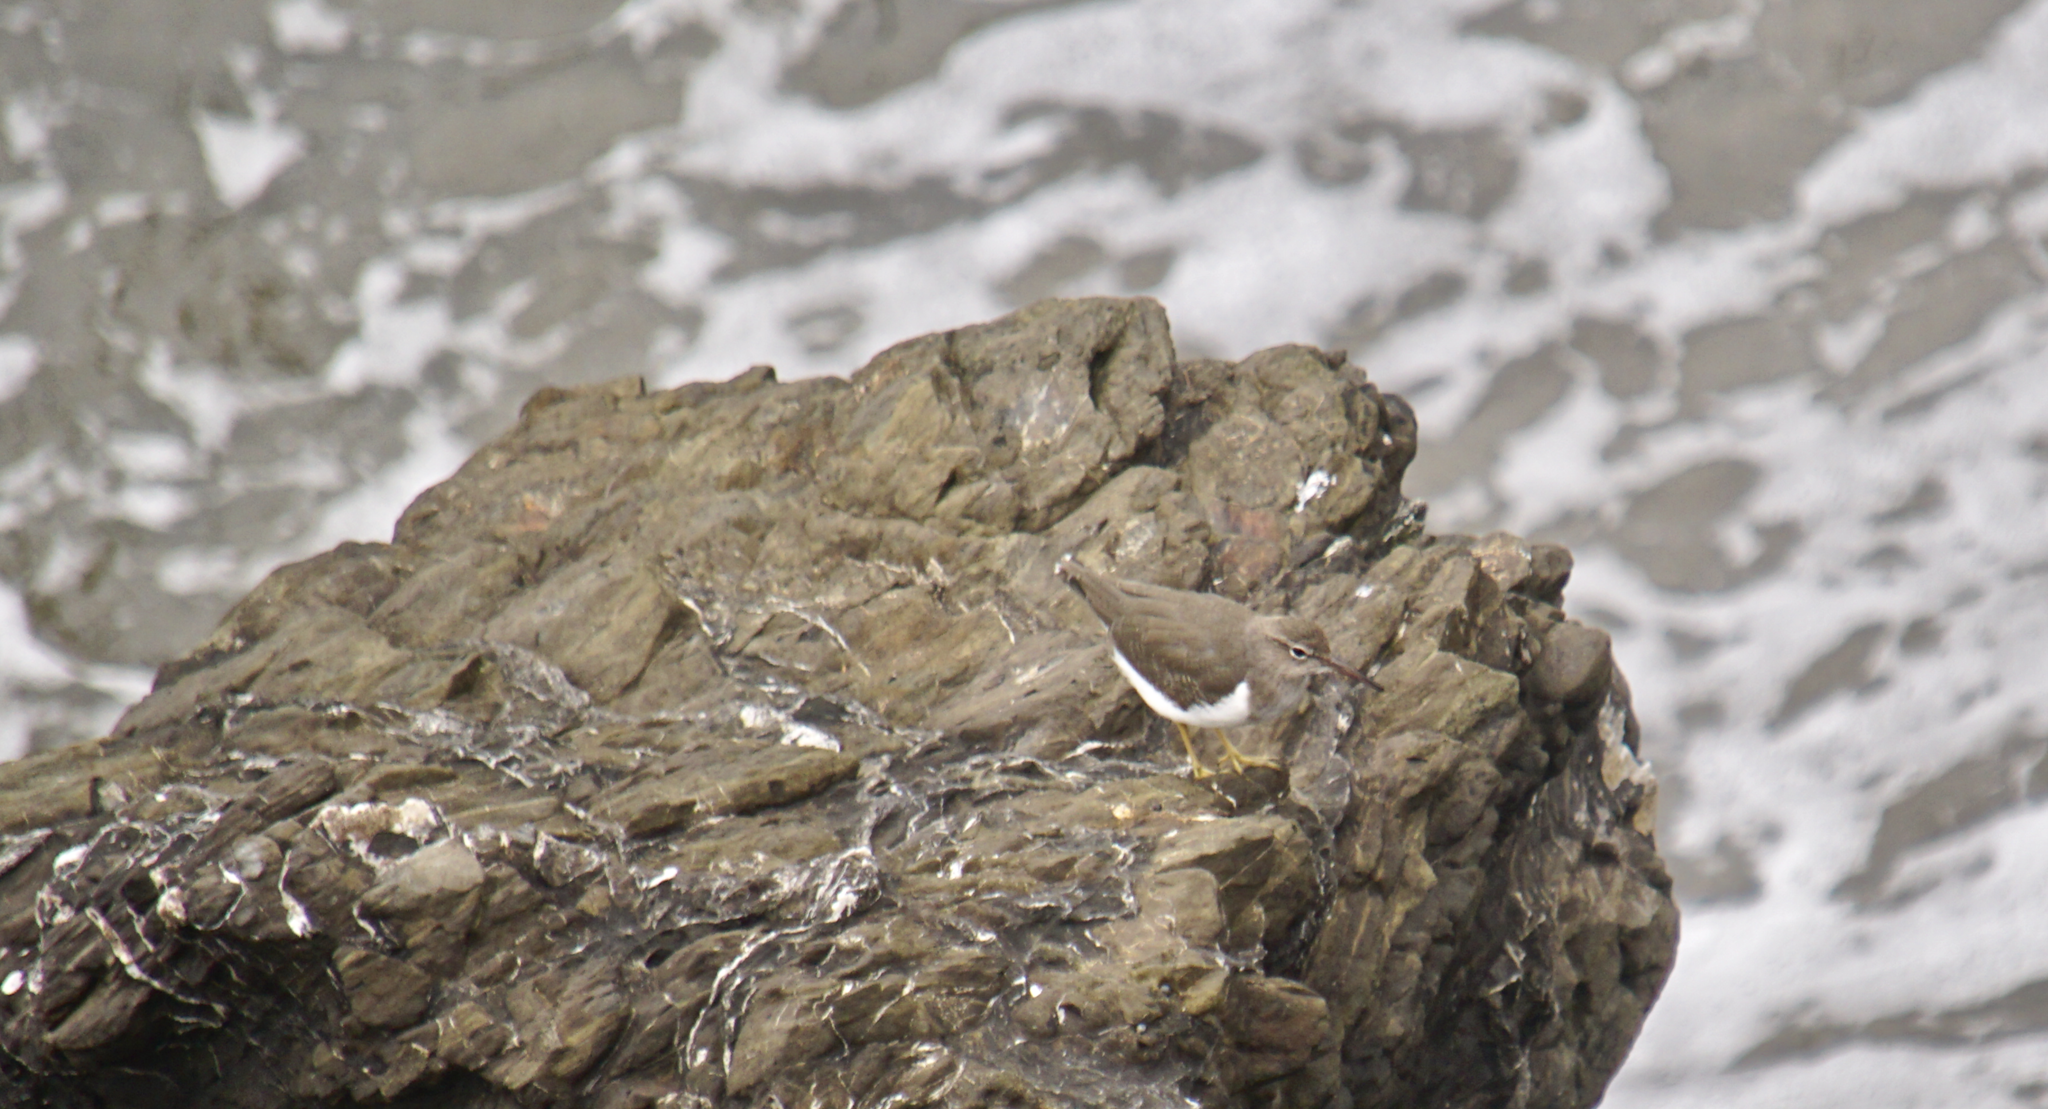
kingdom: Animalia
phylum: Chordata
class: Aves
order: Charadriiformes
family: Scolopacidae
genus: Actitis
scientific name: Actitis macularius
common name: Spotted sandpiper
